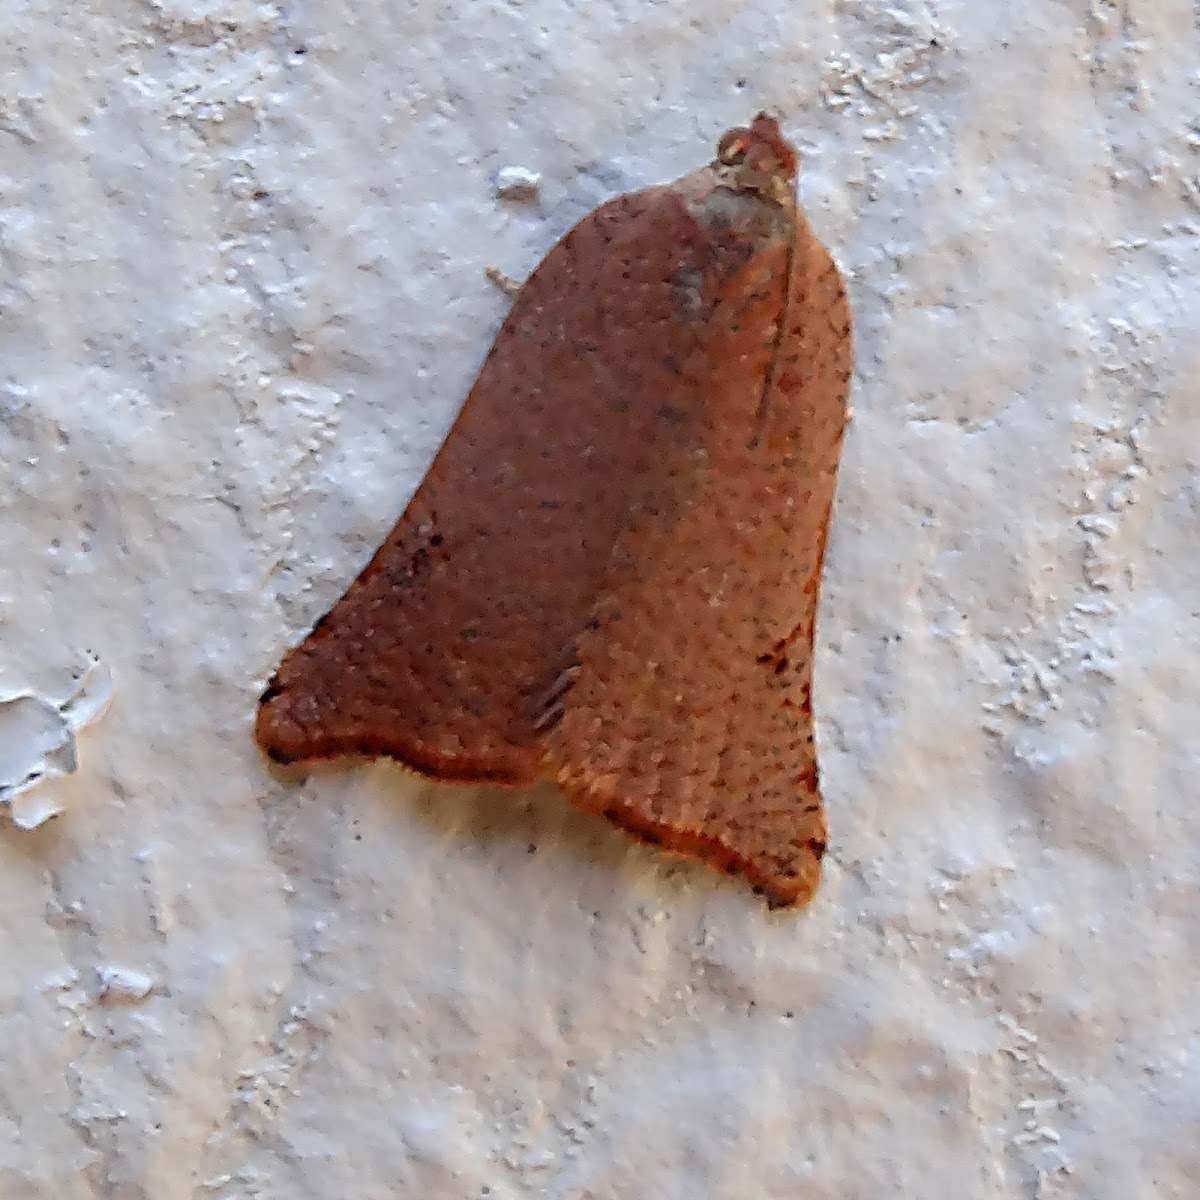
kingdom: Animalia
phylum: Arthropoda
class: Insecta
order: Lepidoptera
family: Tortricidae
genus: Anisogona
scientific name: Anisogona notoplaga
